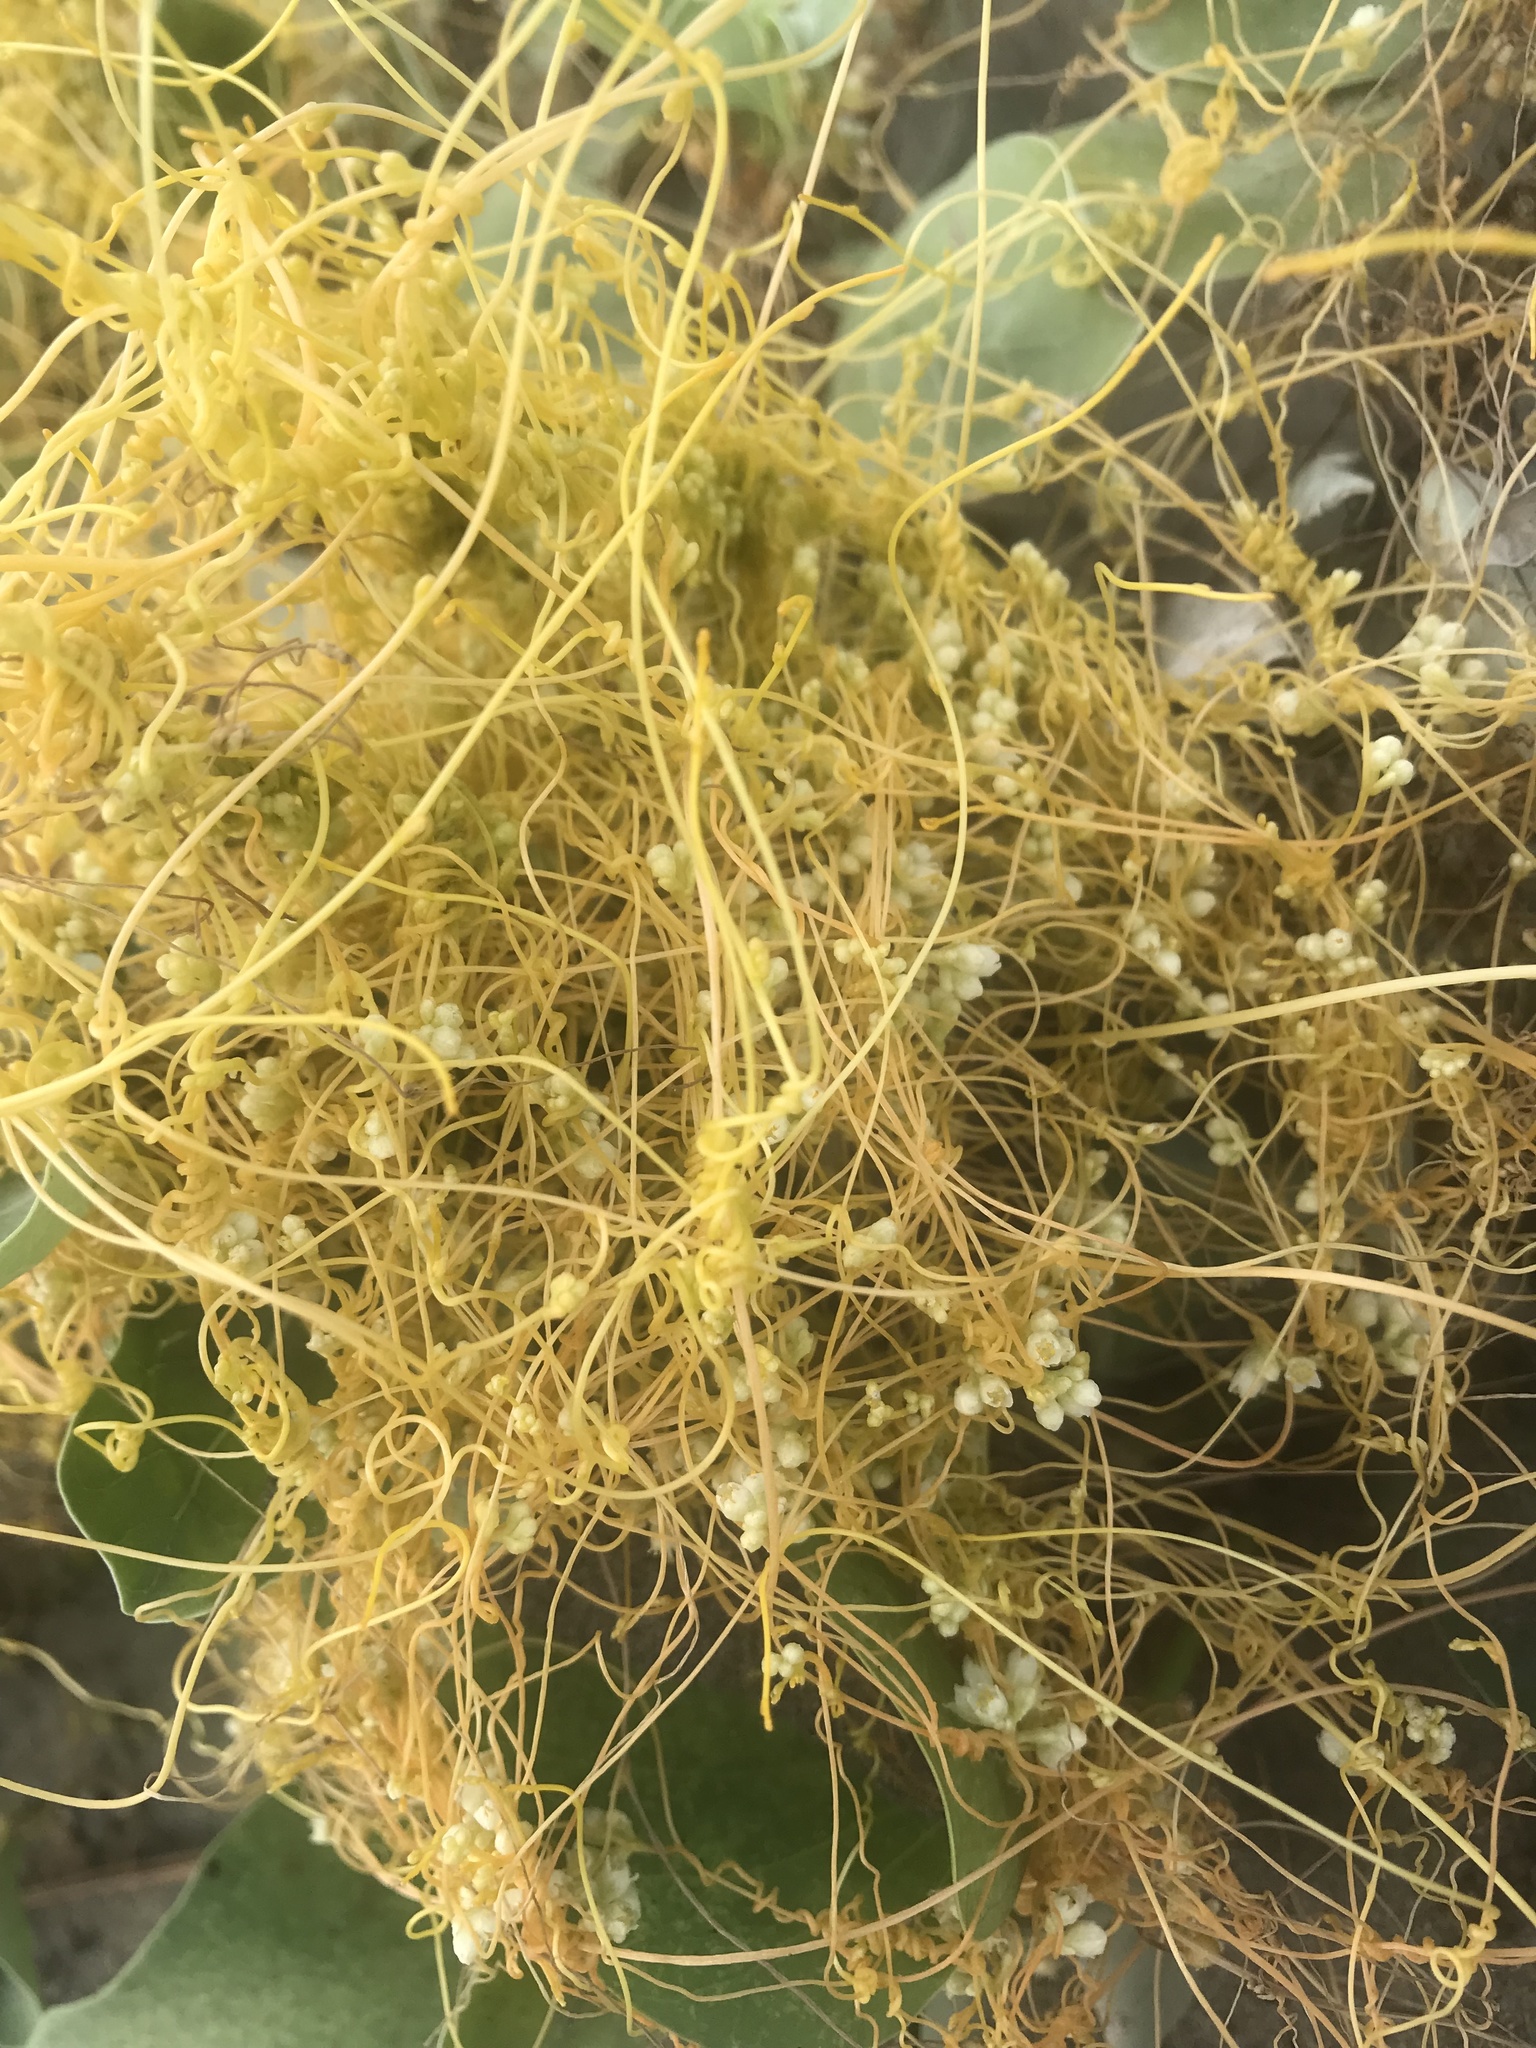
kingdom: Plantae
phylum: Tracheophyta
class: Magnoliopsida
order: Solanales
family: Convolvulaceae
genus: Cuscuta
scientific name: Cuscuta campestris
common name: Yellow dodder
